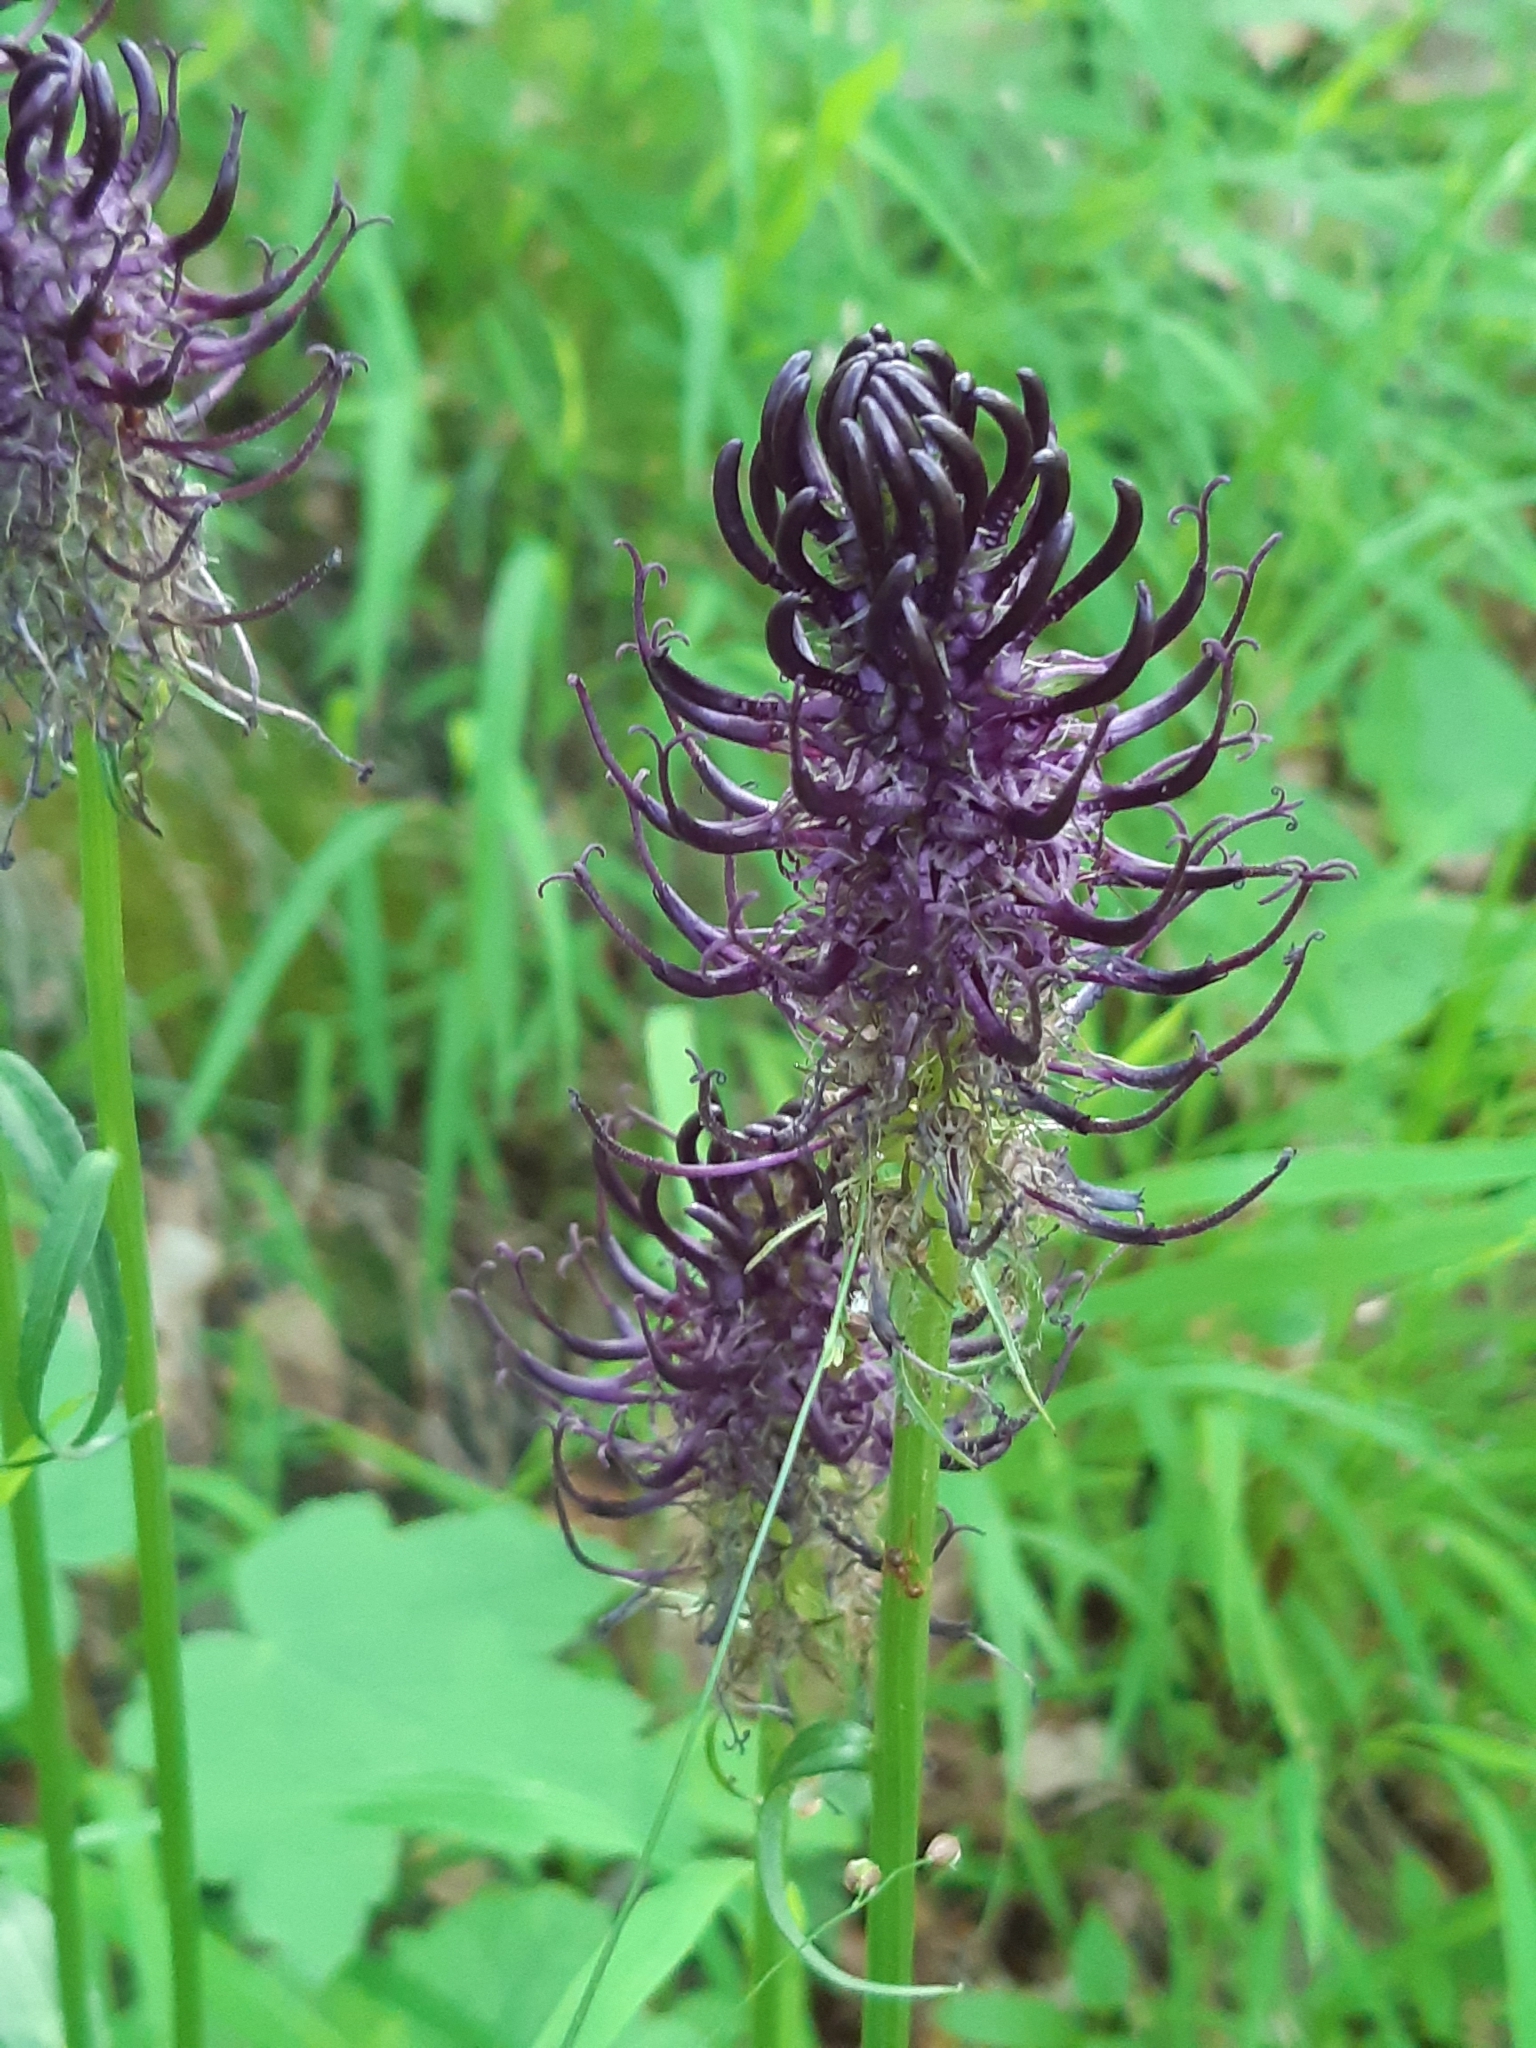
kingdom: Plantae
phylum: Tracheophyta
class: Magnoliopsida
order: Asterales
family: Campanulaceae
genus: Phyteuma
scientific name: Phyteuma nigrum
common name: Black rampion
